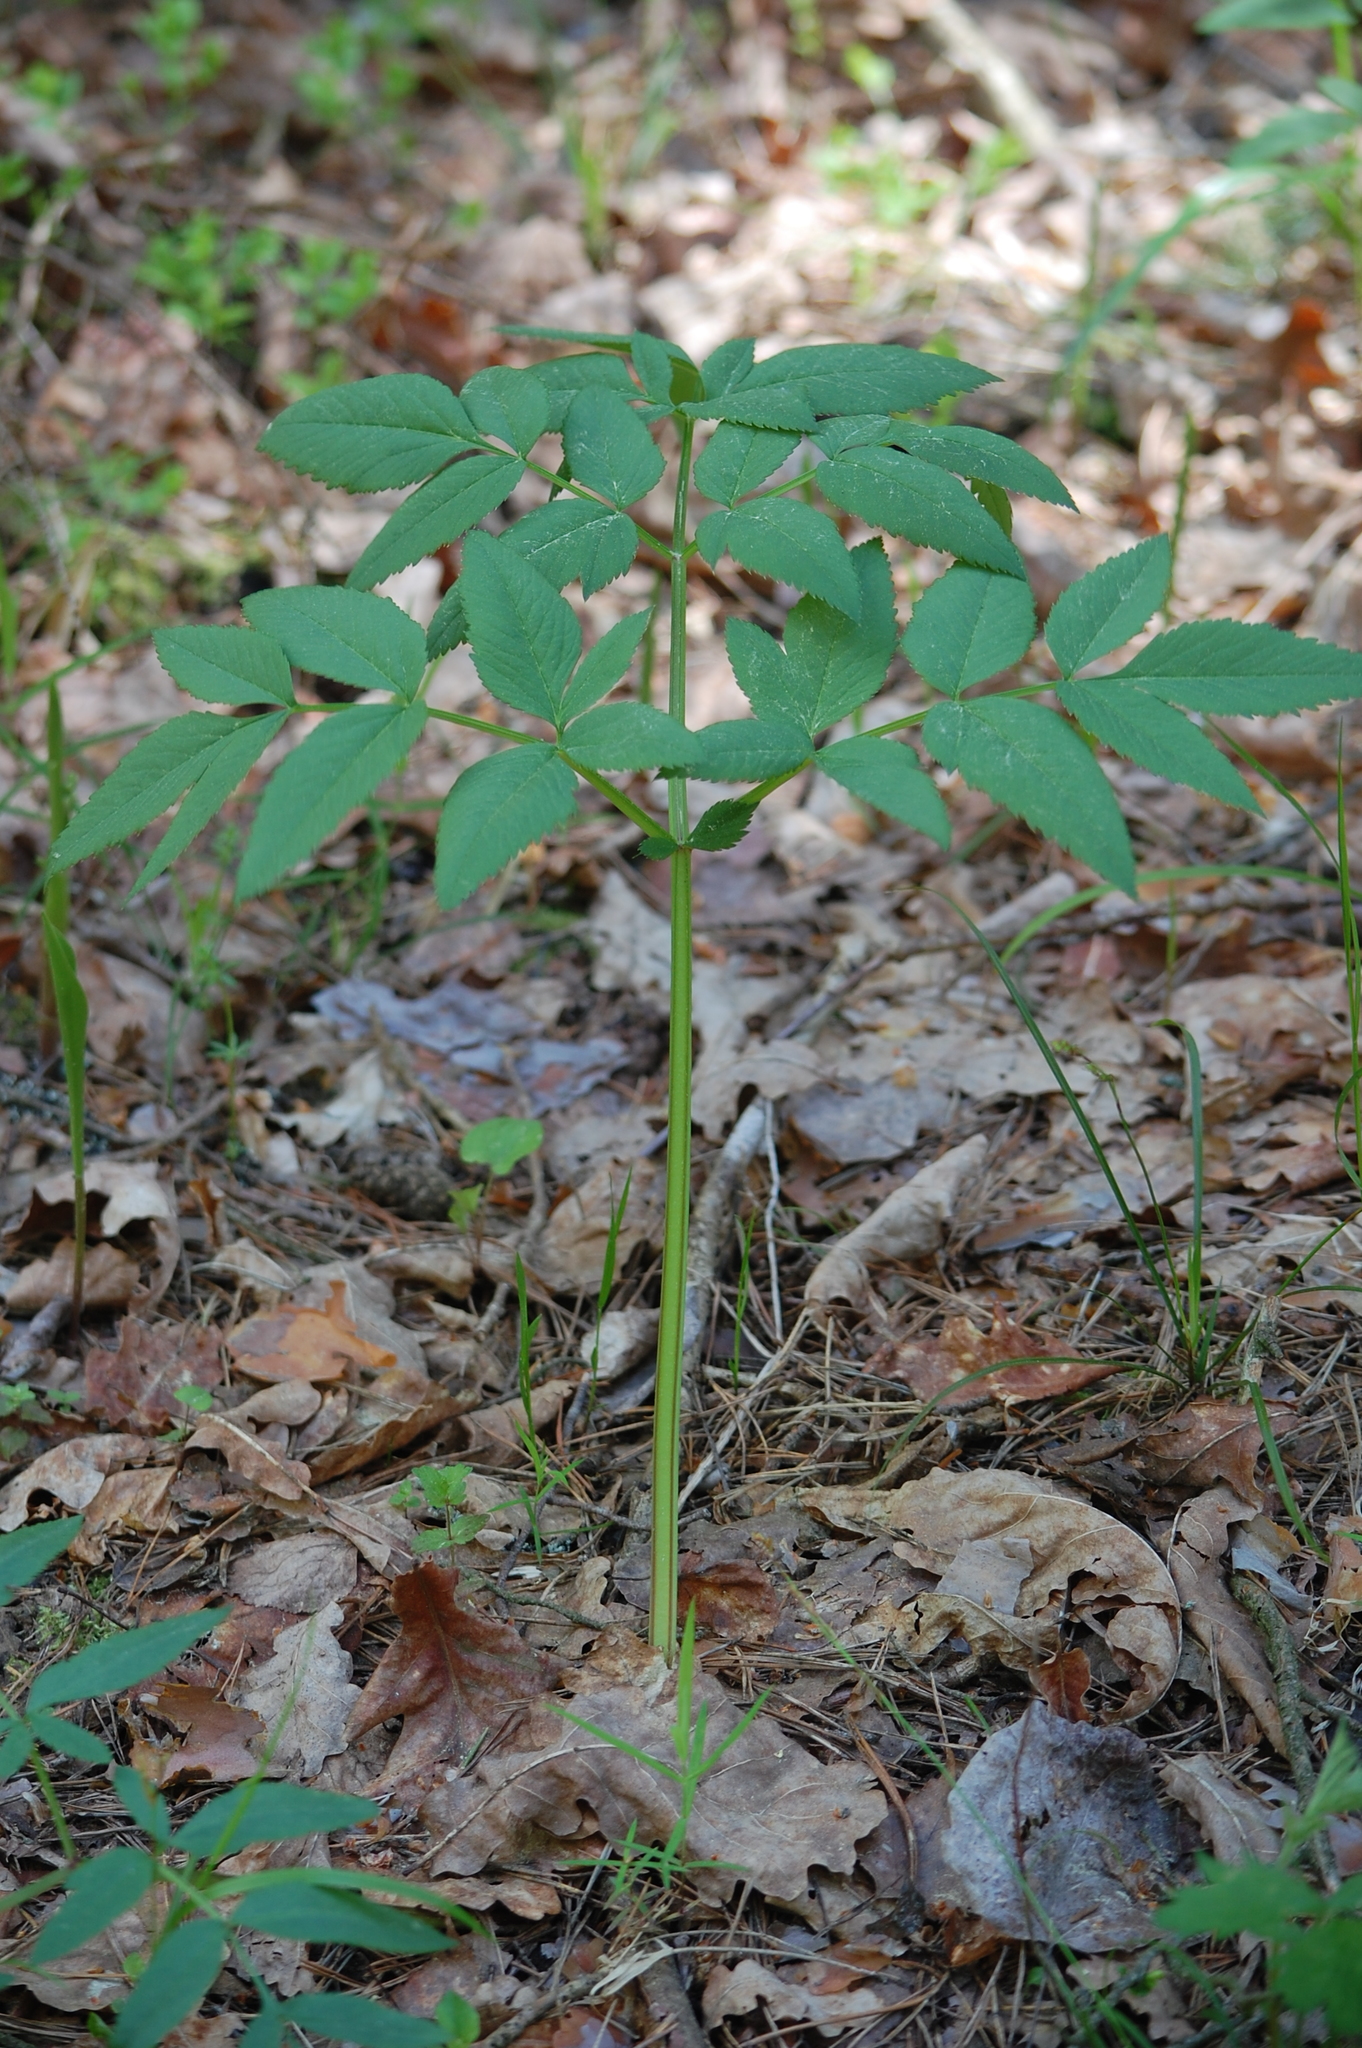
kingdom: Plantae
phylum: Tracheophyta
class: Magnoliopsida
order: Apiales
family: Apiaceae
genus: Angelica
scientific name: Angelica sylvestris
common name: Wild angelica
